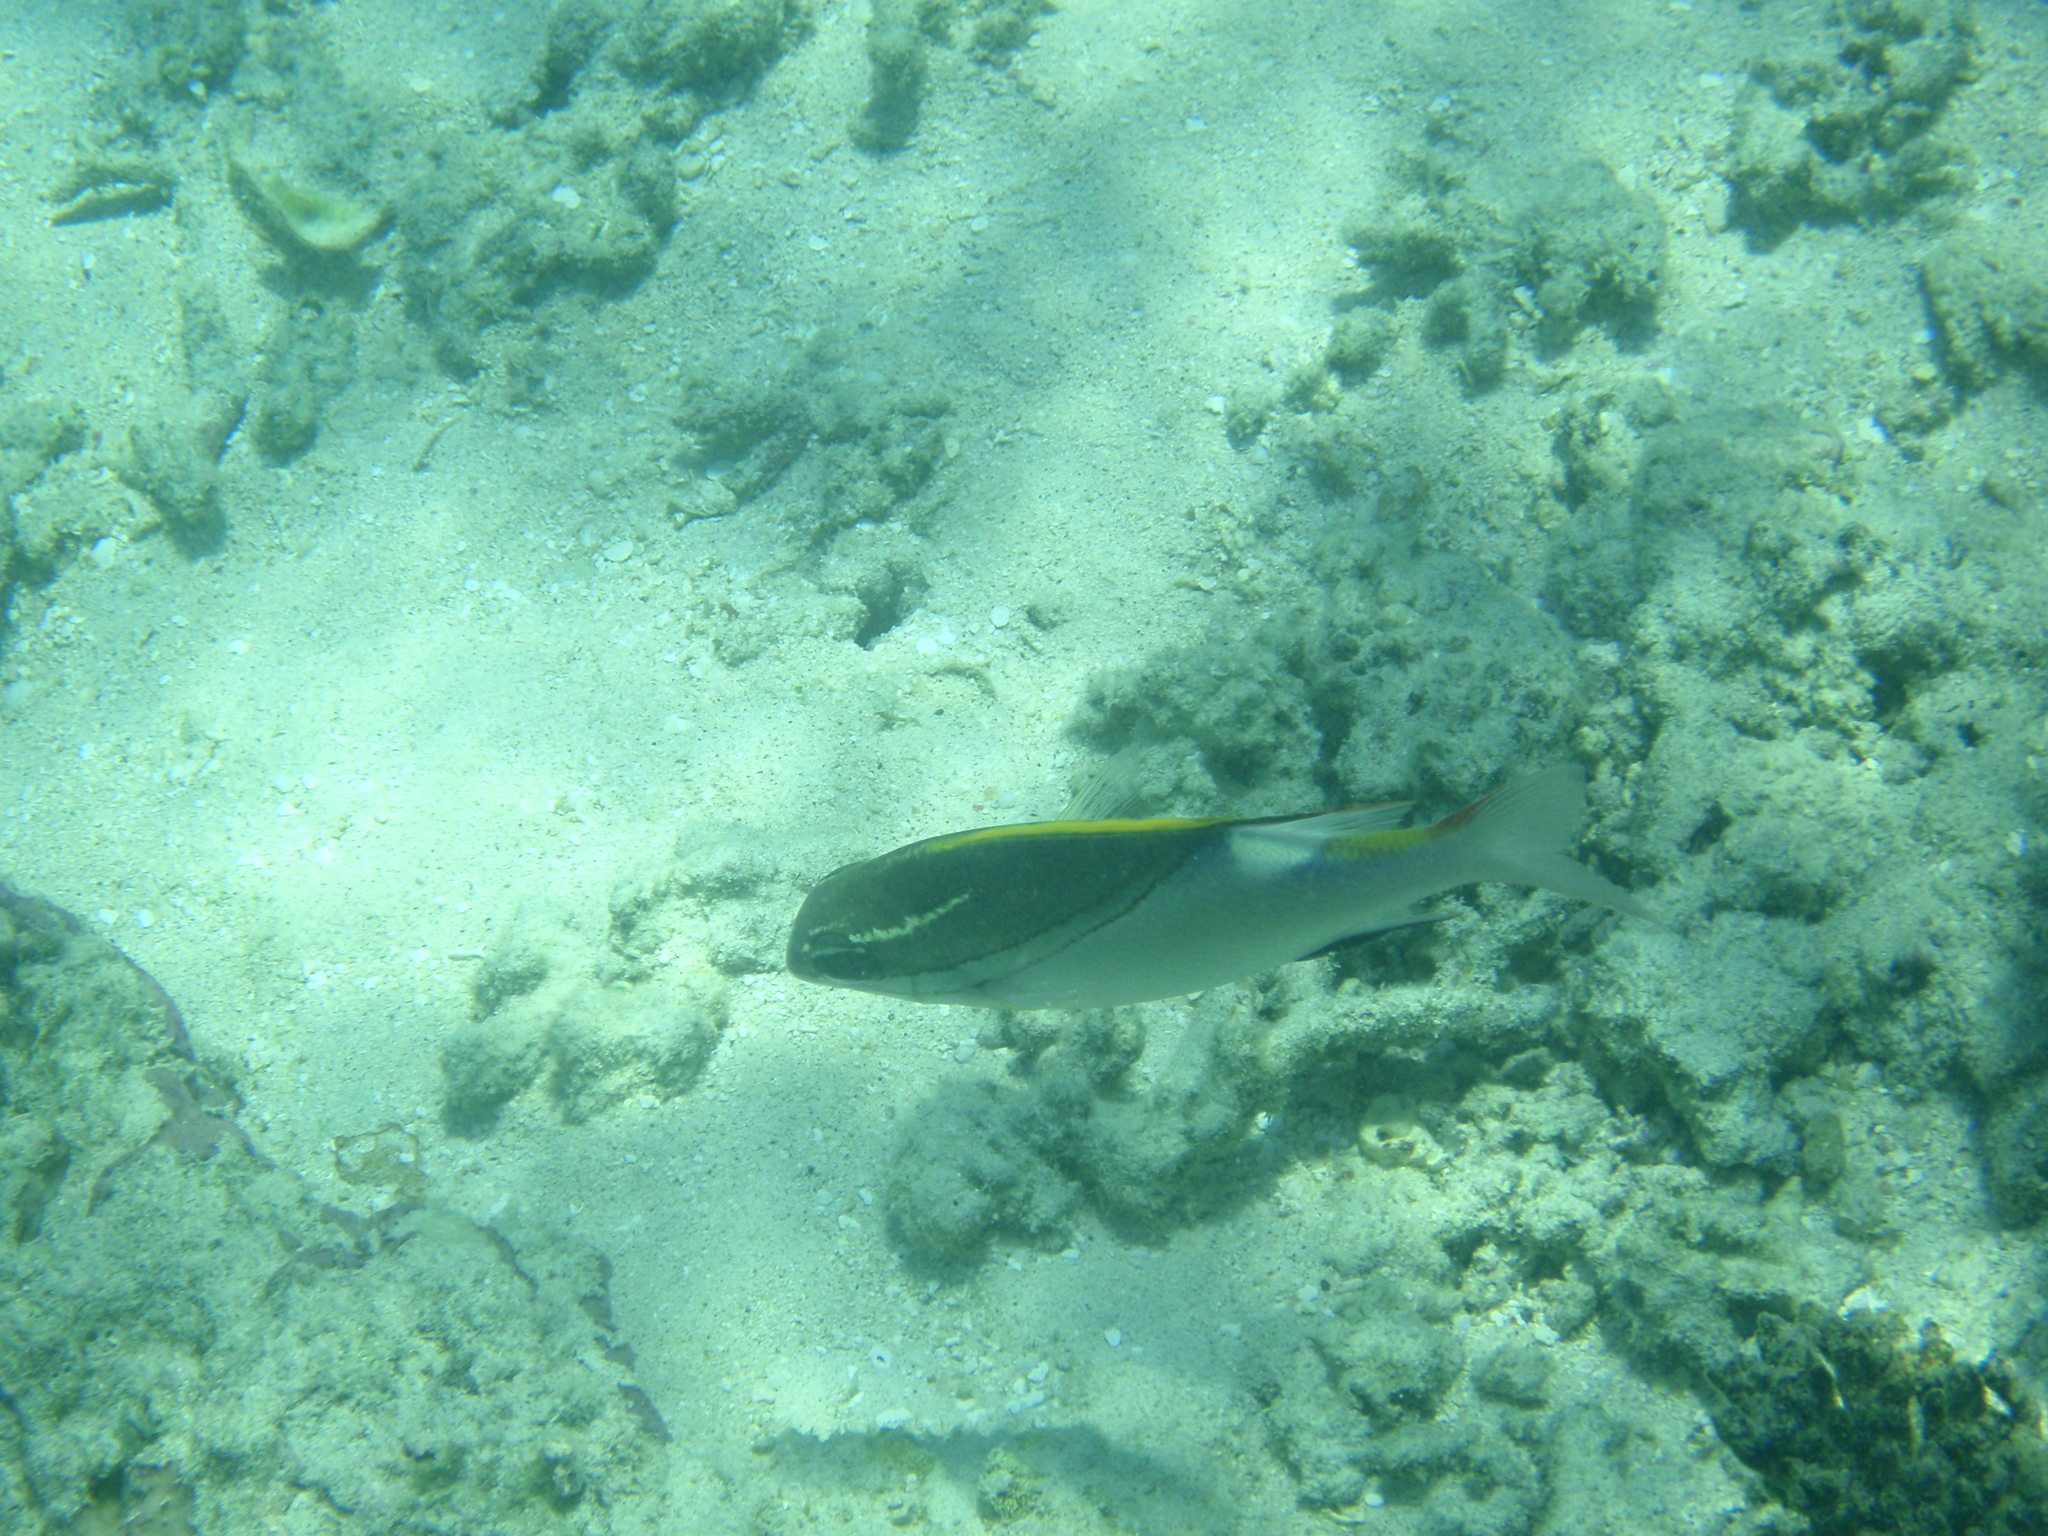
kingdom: Animalia
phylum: Chordata
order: Perciformes
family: Nemipteridae
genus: Scolopsis
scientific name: Scolopsis bilineata
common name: Two-lined monocle bream
